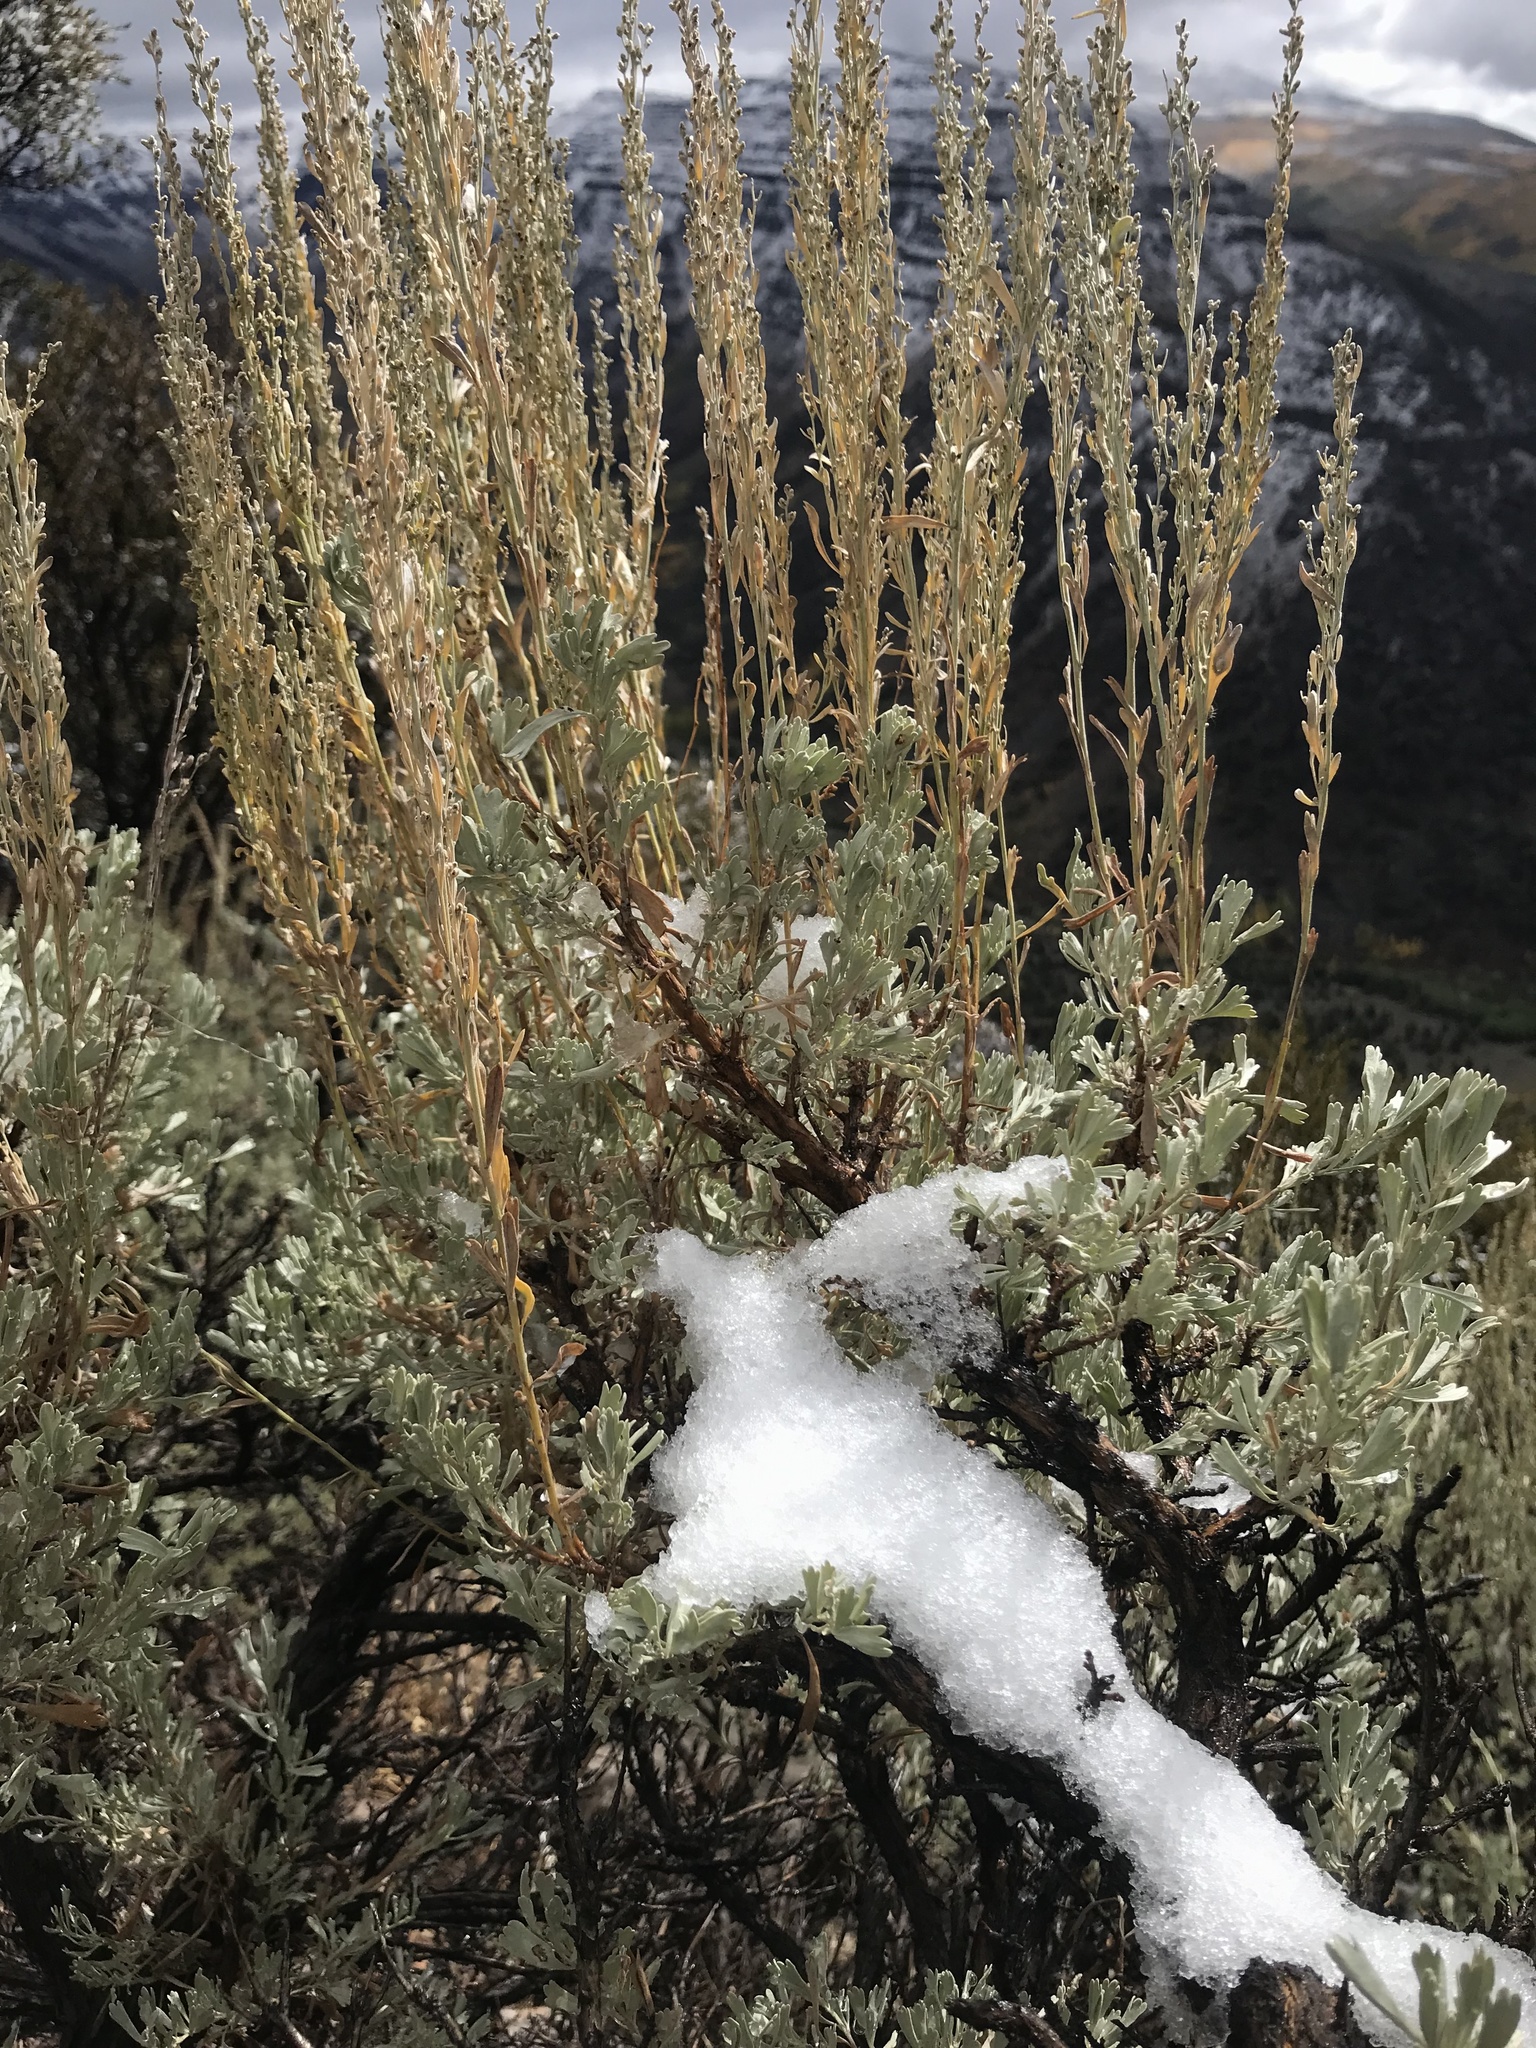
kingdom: Plantae
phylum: Tracheophyta
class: Magnoliopsida
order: Asterales
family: Asteraceae
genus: Artemisia
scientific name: Artemisia tridentata
